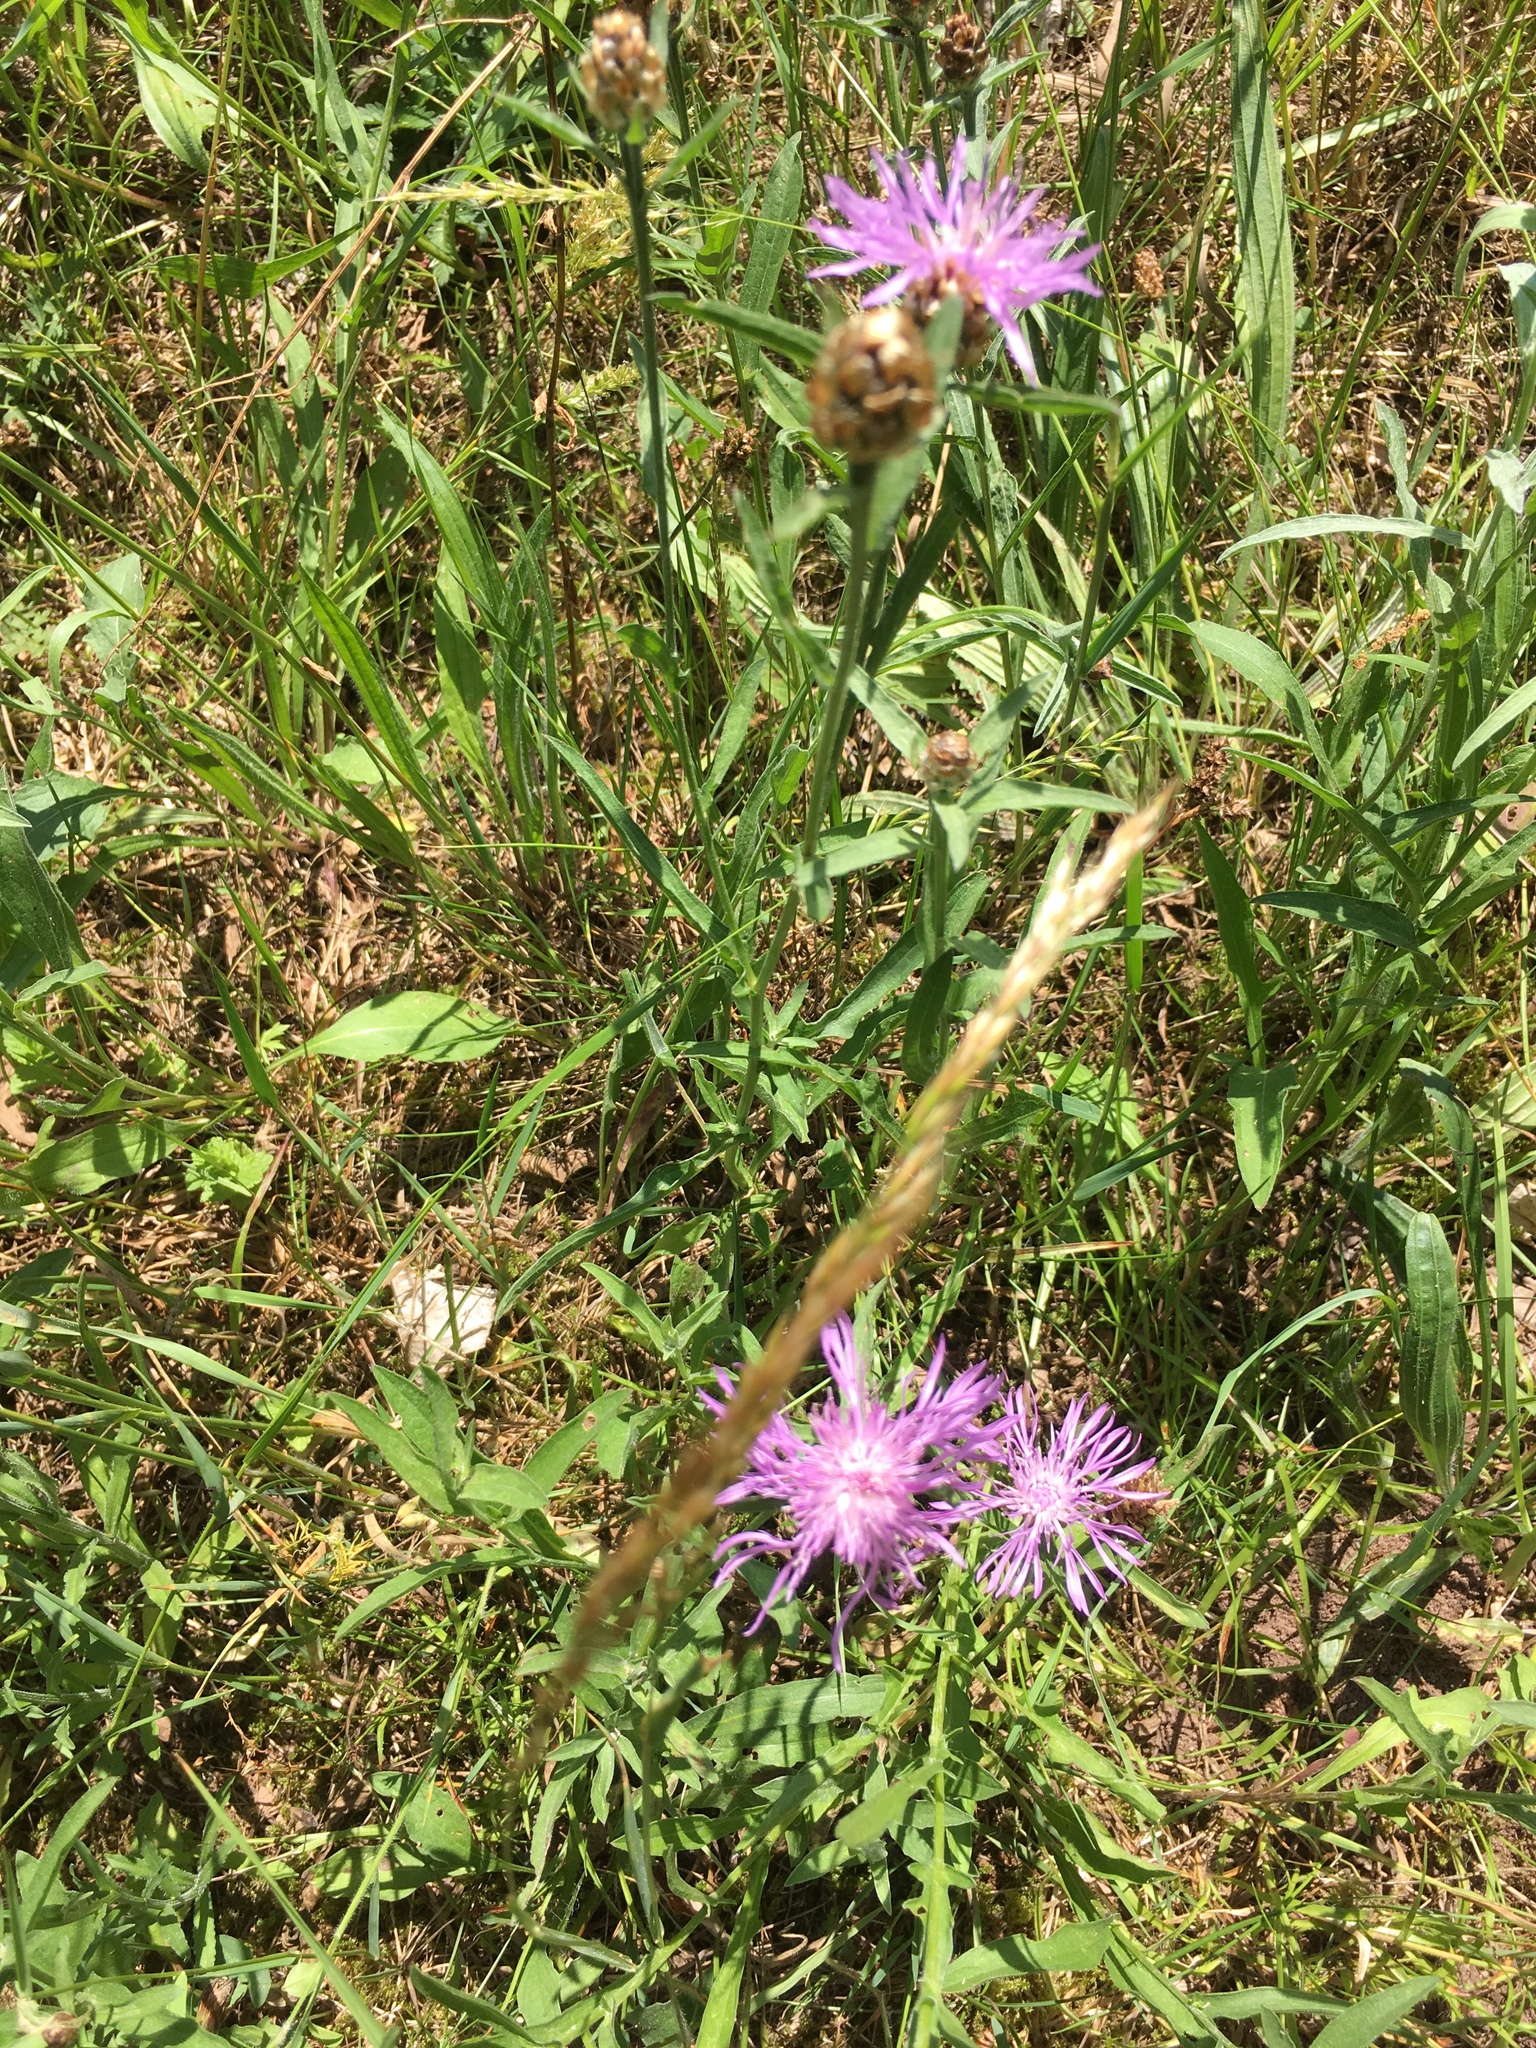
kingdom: Plantae
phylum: Tracheophyta
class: Magnoliopsida
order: Asterales
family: Asteraceae
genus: Centaurea
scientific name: Centaurea jacea
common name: Brown knapweed
